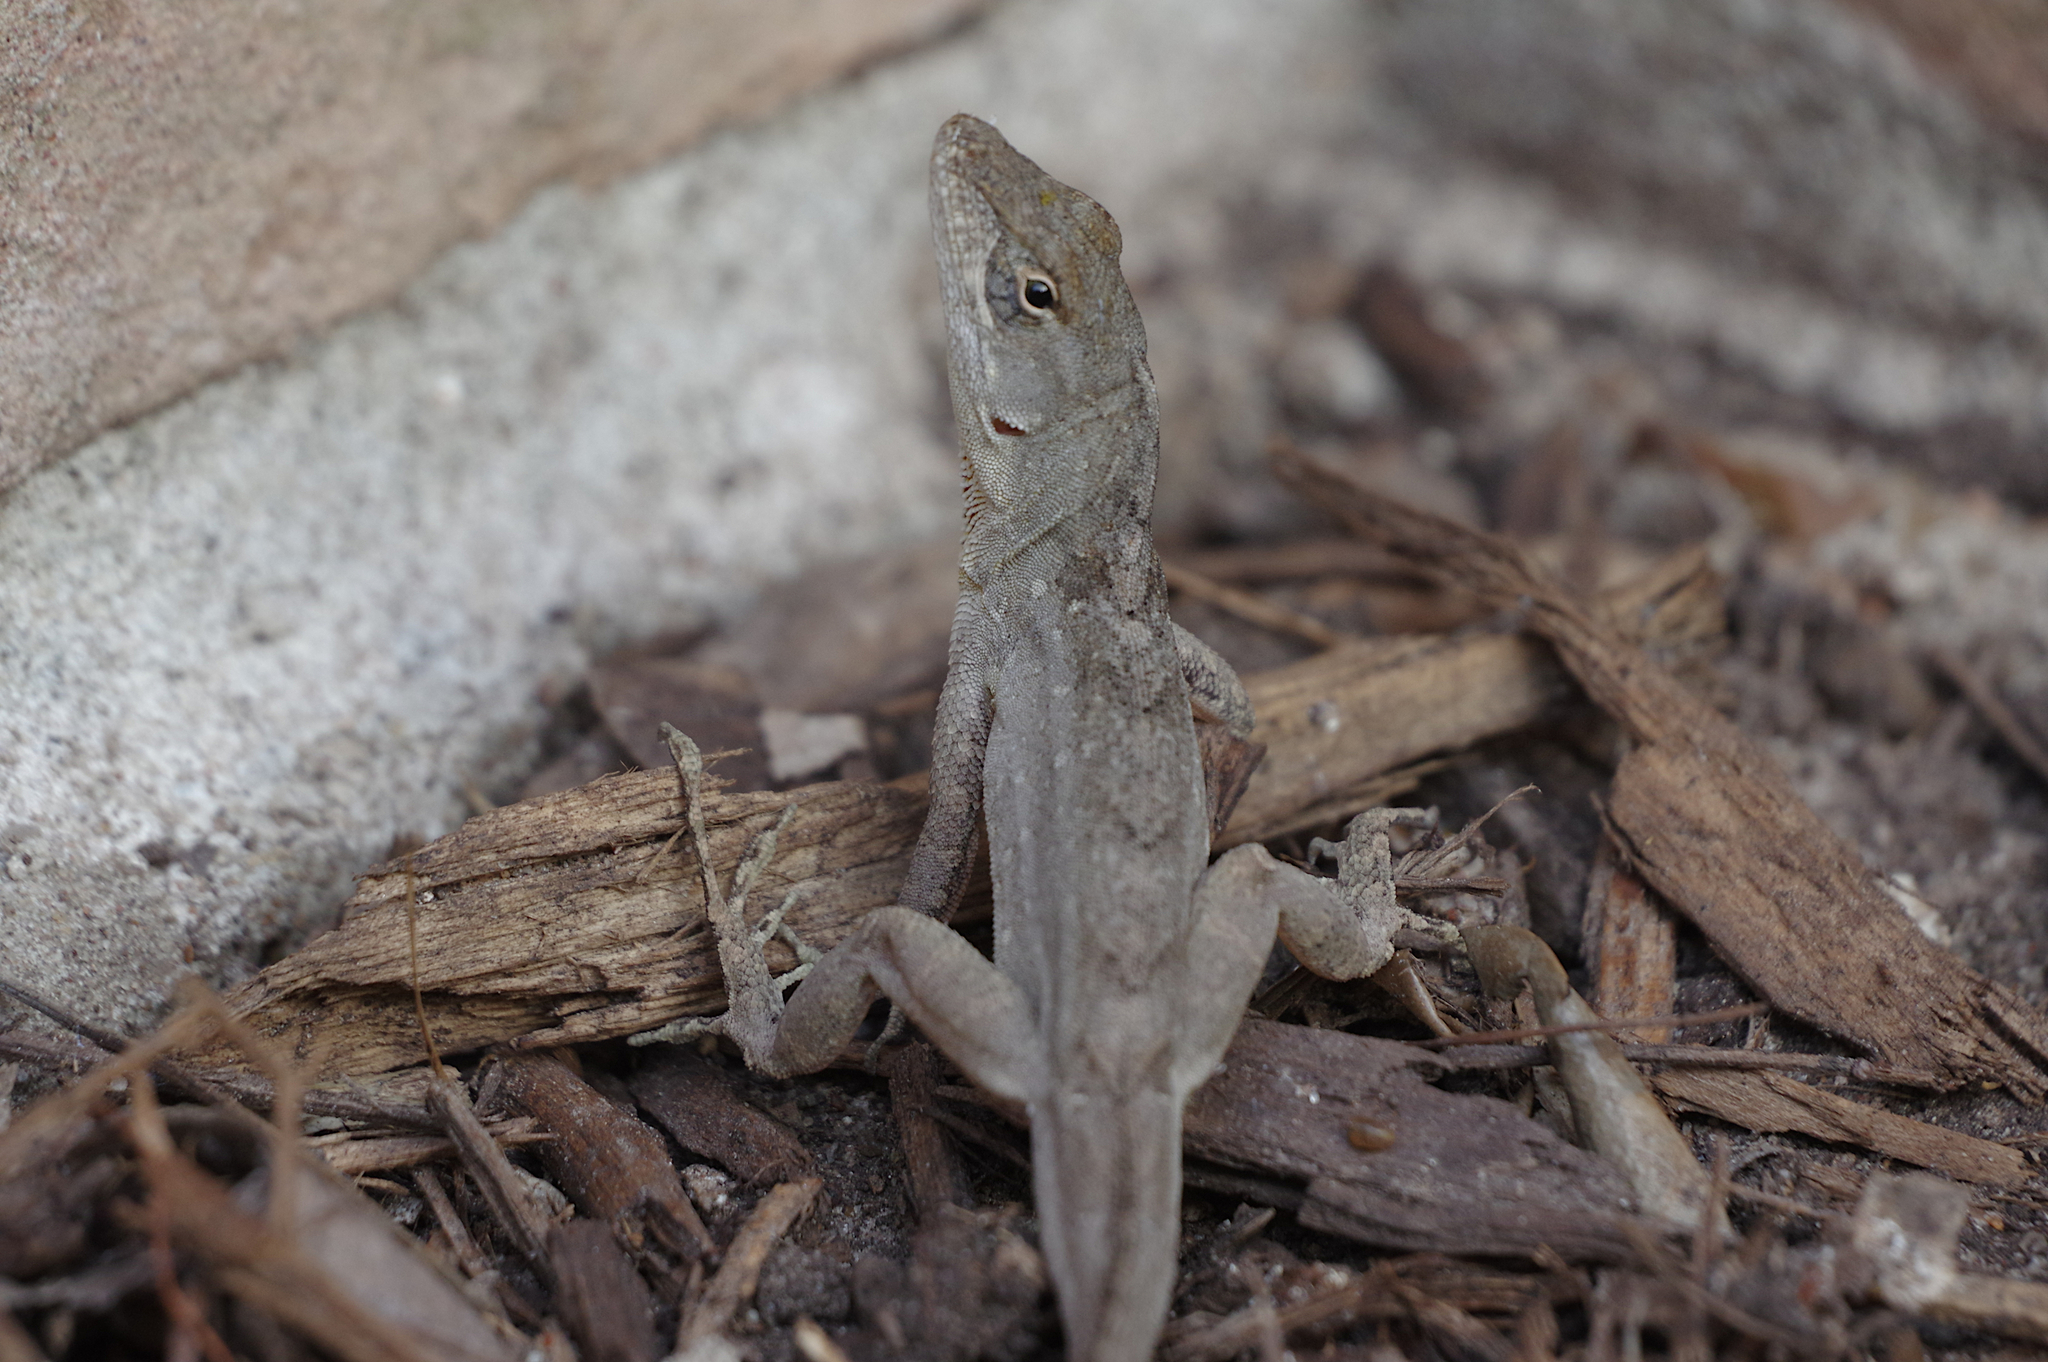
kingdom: Animalia
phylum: Chordata
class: Squamata
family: Dactyloidae
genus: Anolis
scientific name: Anolis sagrei
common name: Brown anole
